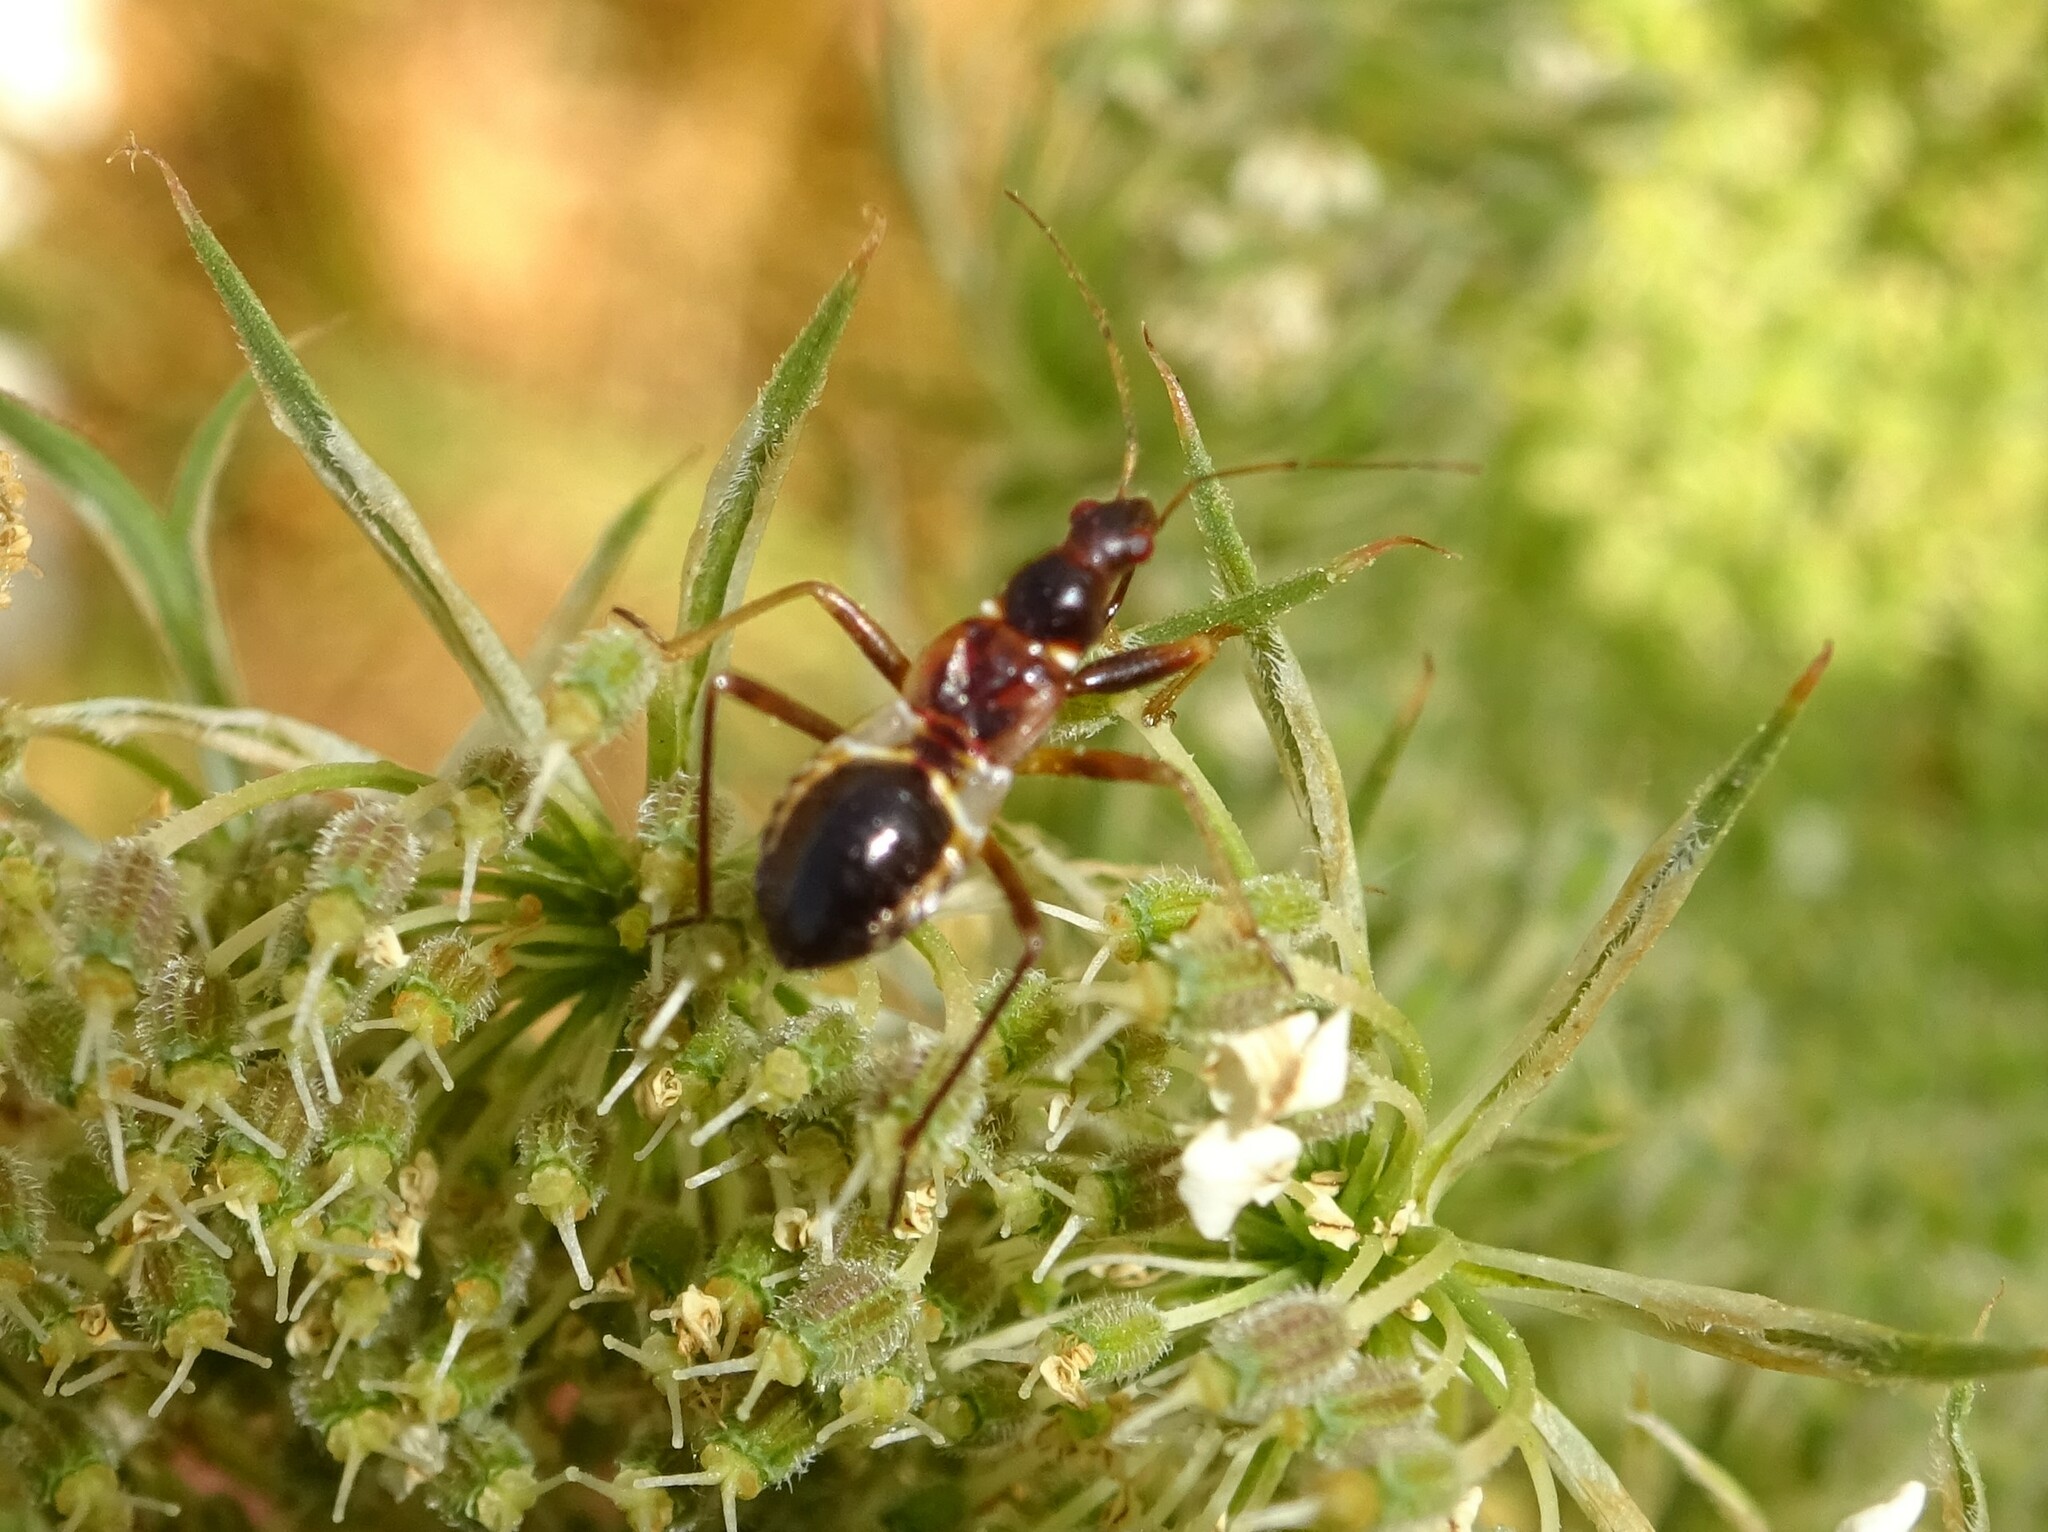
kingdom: Animalia
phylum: Arthropoda
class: Insecta
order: Hemiptera
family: Nabidae
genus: Himacerus
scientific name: Himacerus mirmicoides
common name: Ant damsel bug
